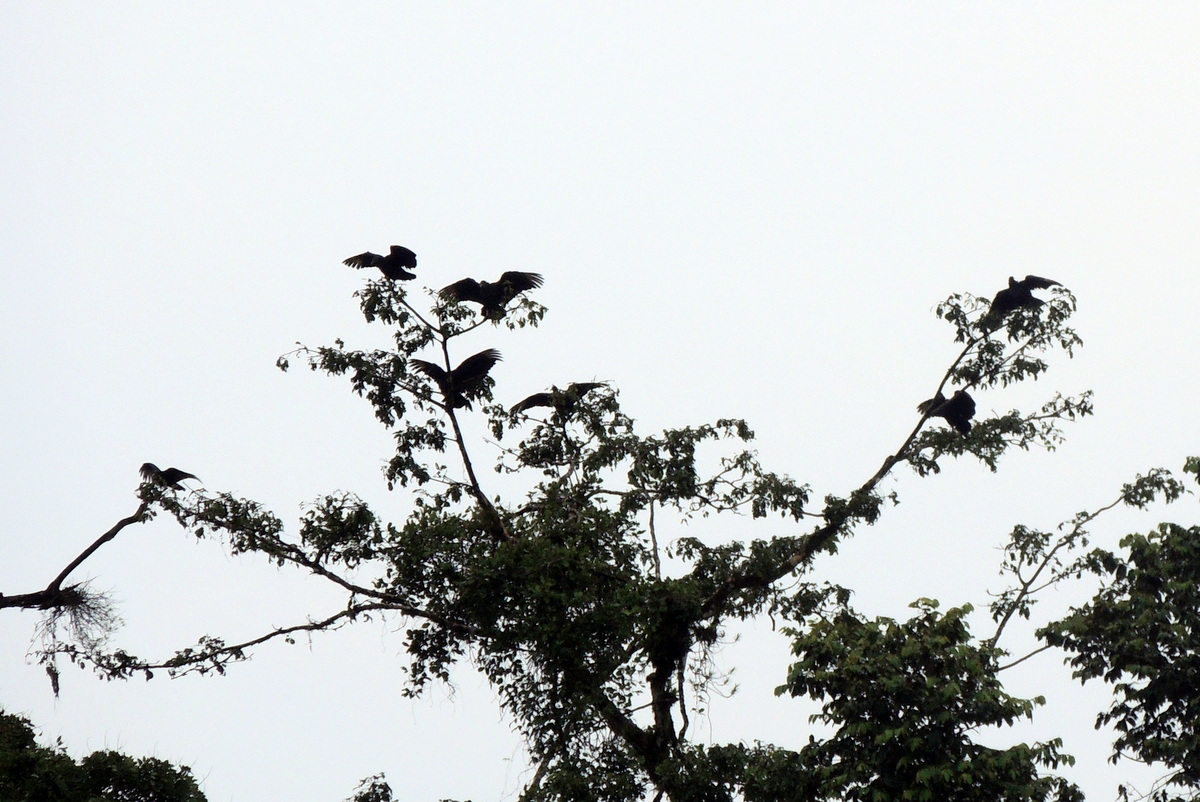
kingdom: Animalia
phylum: Chordata
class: Aves
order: Accipitriformes
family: Cathartidae
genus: Coragyps
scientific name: Coragyps atratus
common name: Black vulture
